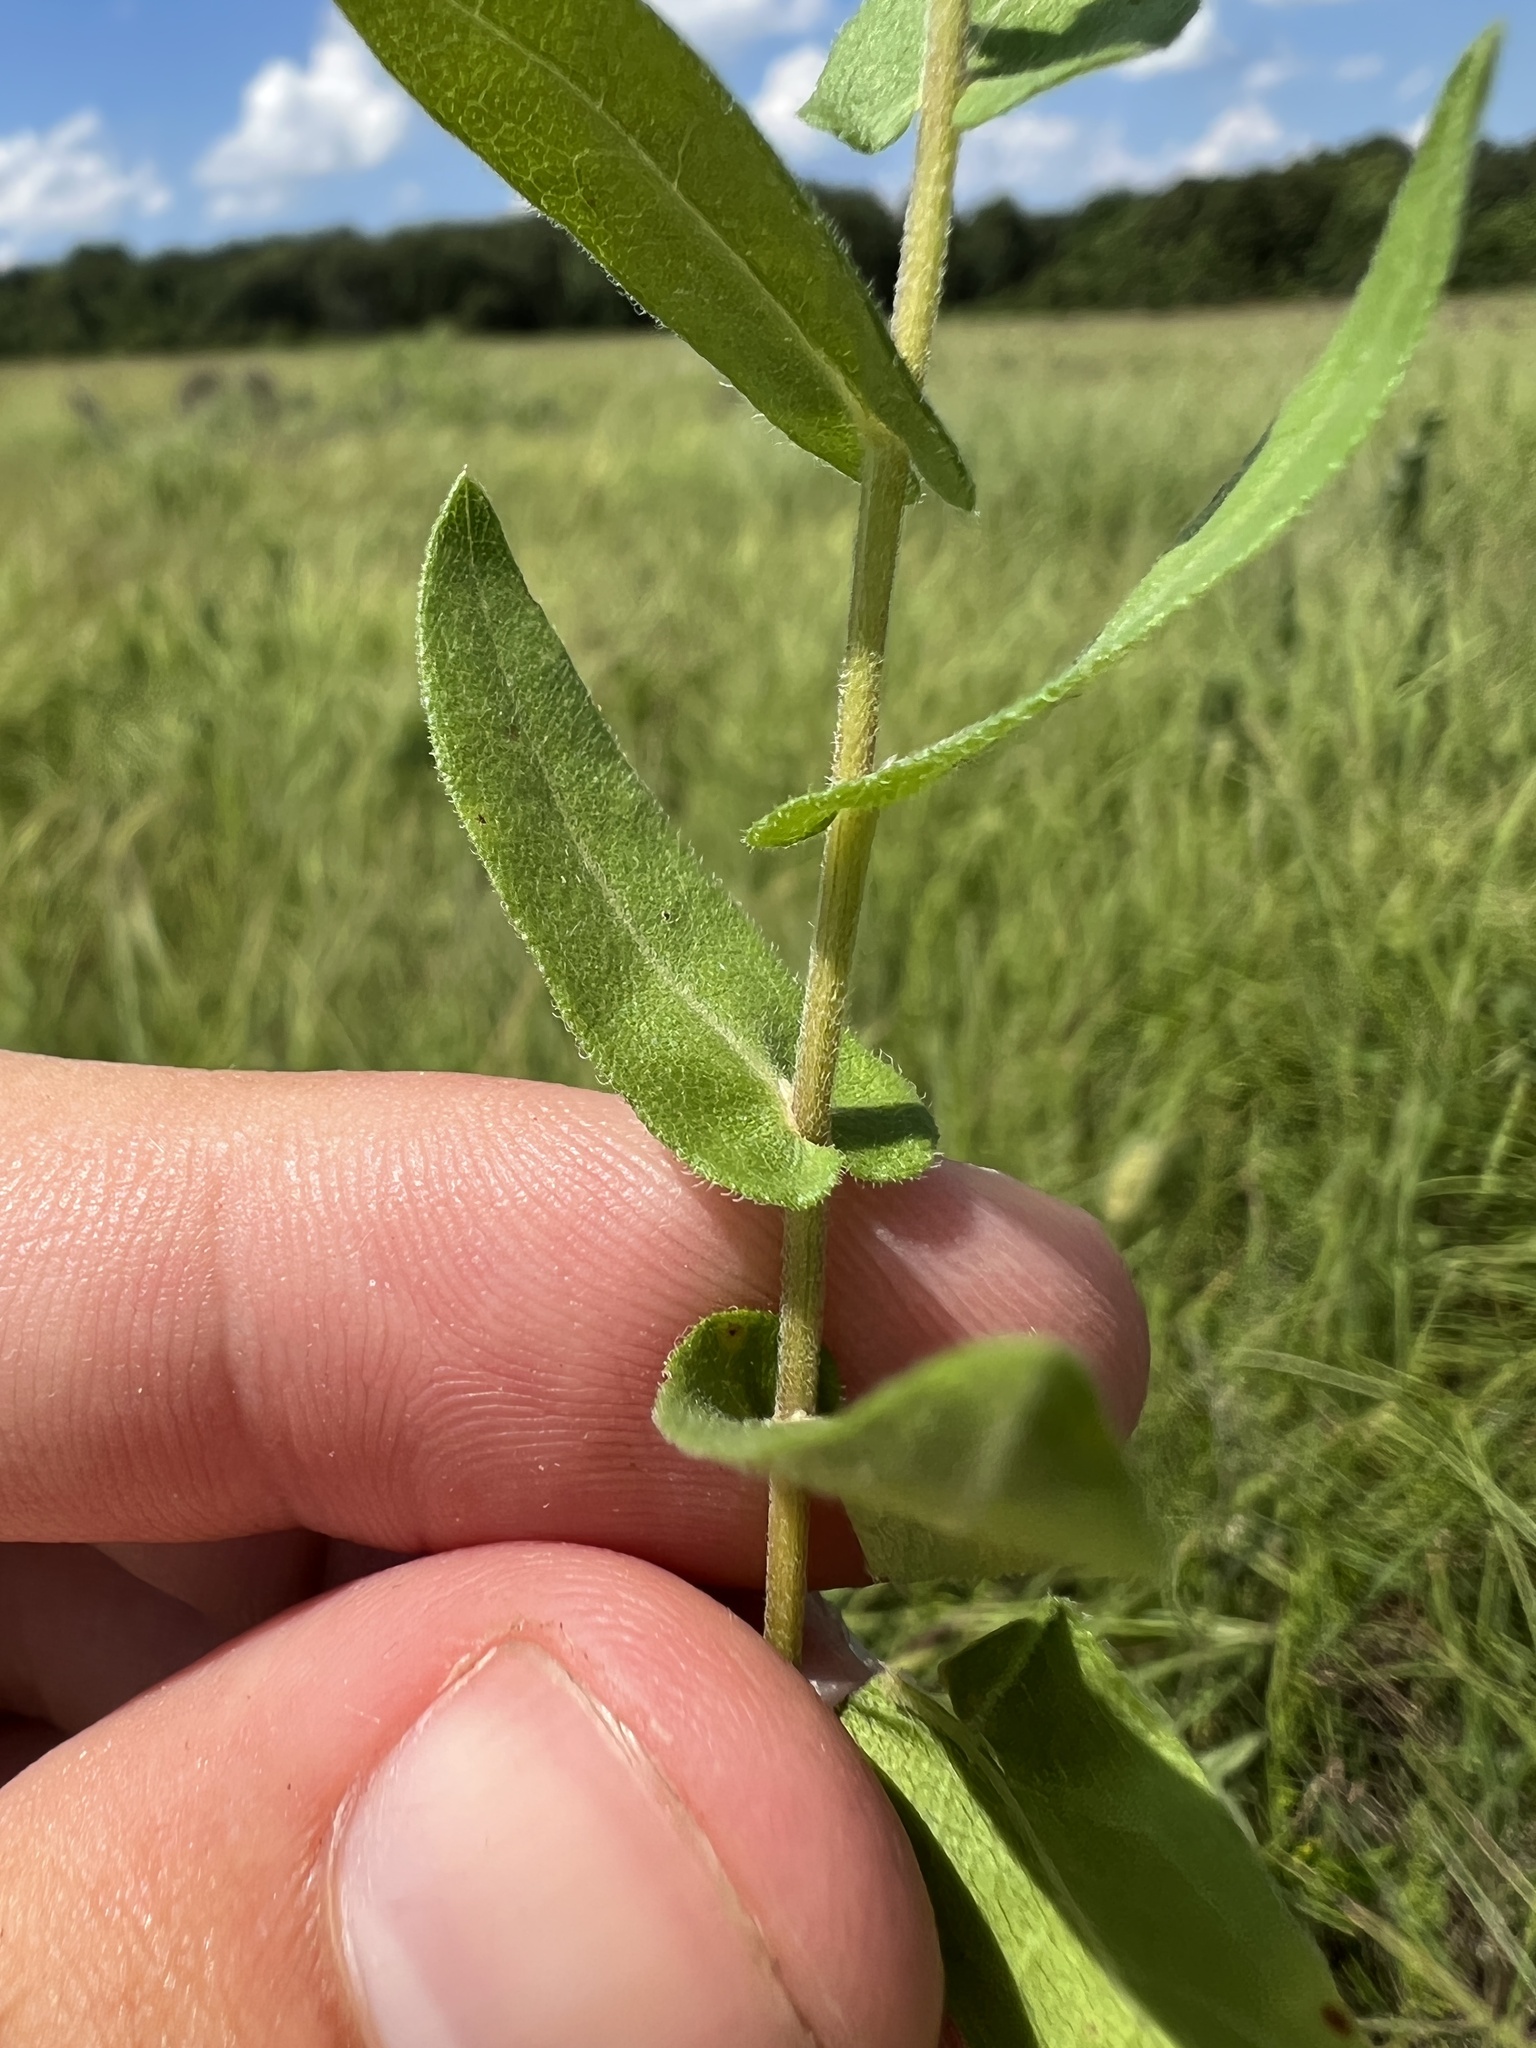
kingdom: Plantae
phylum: Tracheophyta
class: Magnoliopsida
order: Asterales
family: Asteraceae
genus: Symphyotrichum
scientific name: Symphyotrichum patens
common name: Late purple aster
